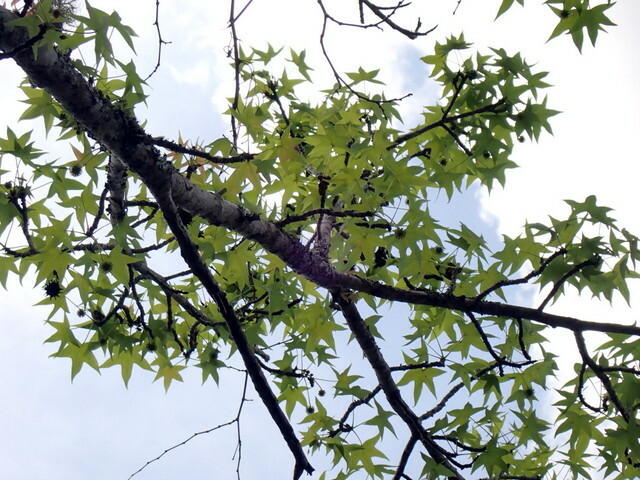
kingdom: Plantae
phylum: Tracheophyta
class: Magnoliopsida
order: Saxifragales
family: Altingiaceae
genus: Liquidambar
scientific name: Liquidambar styraciflua
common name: Sweet gum
